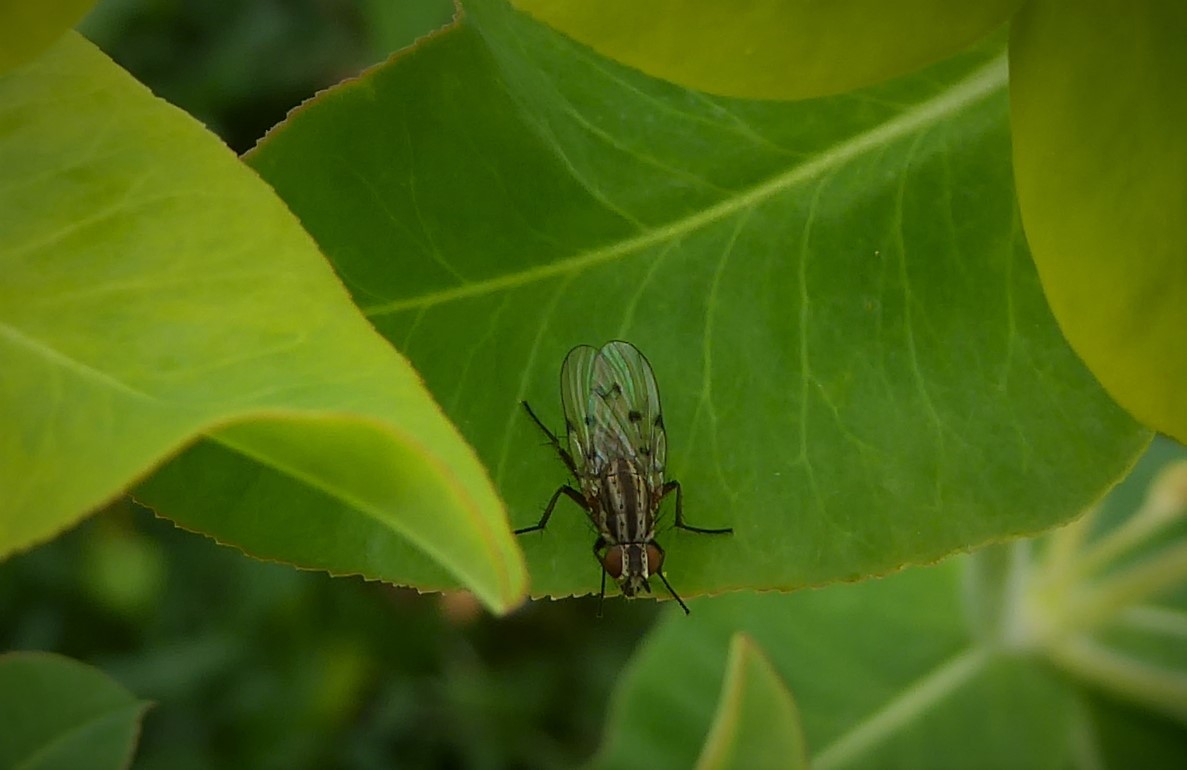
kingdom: Animalia
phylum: Arthropoda
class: Insecta
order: Diptera
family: Anthomyiidae
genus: Anthomyia
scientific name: Anthomyia punctipennis
